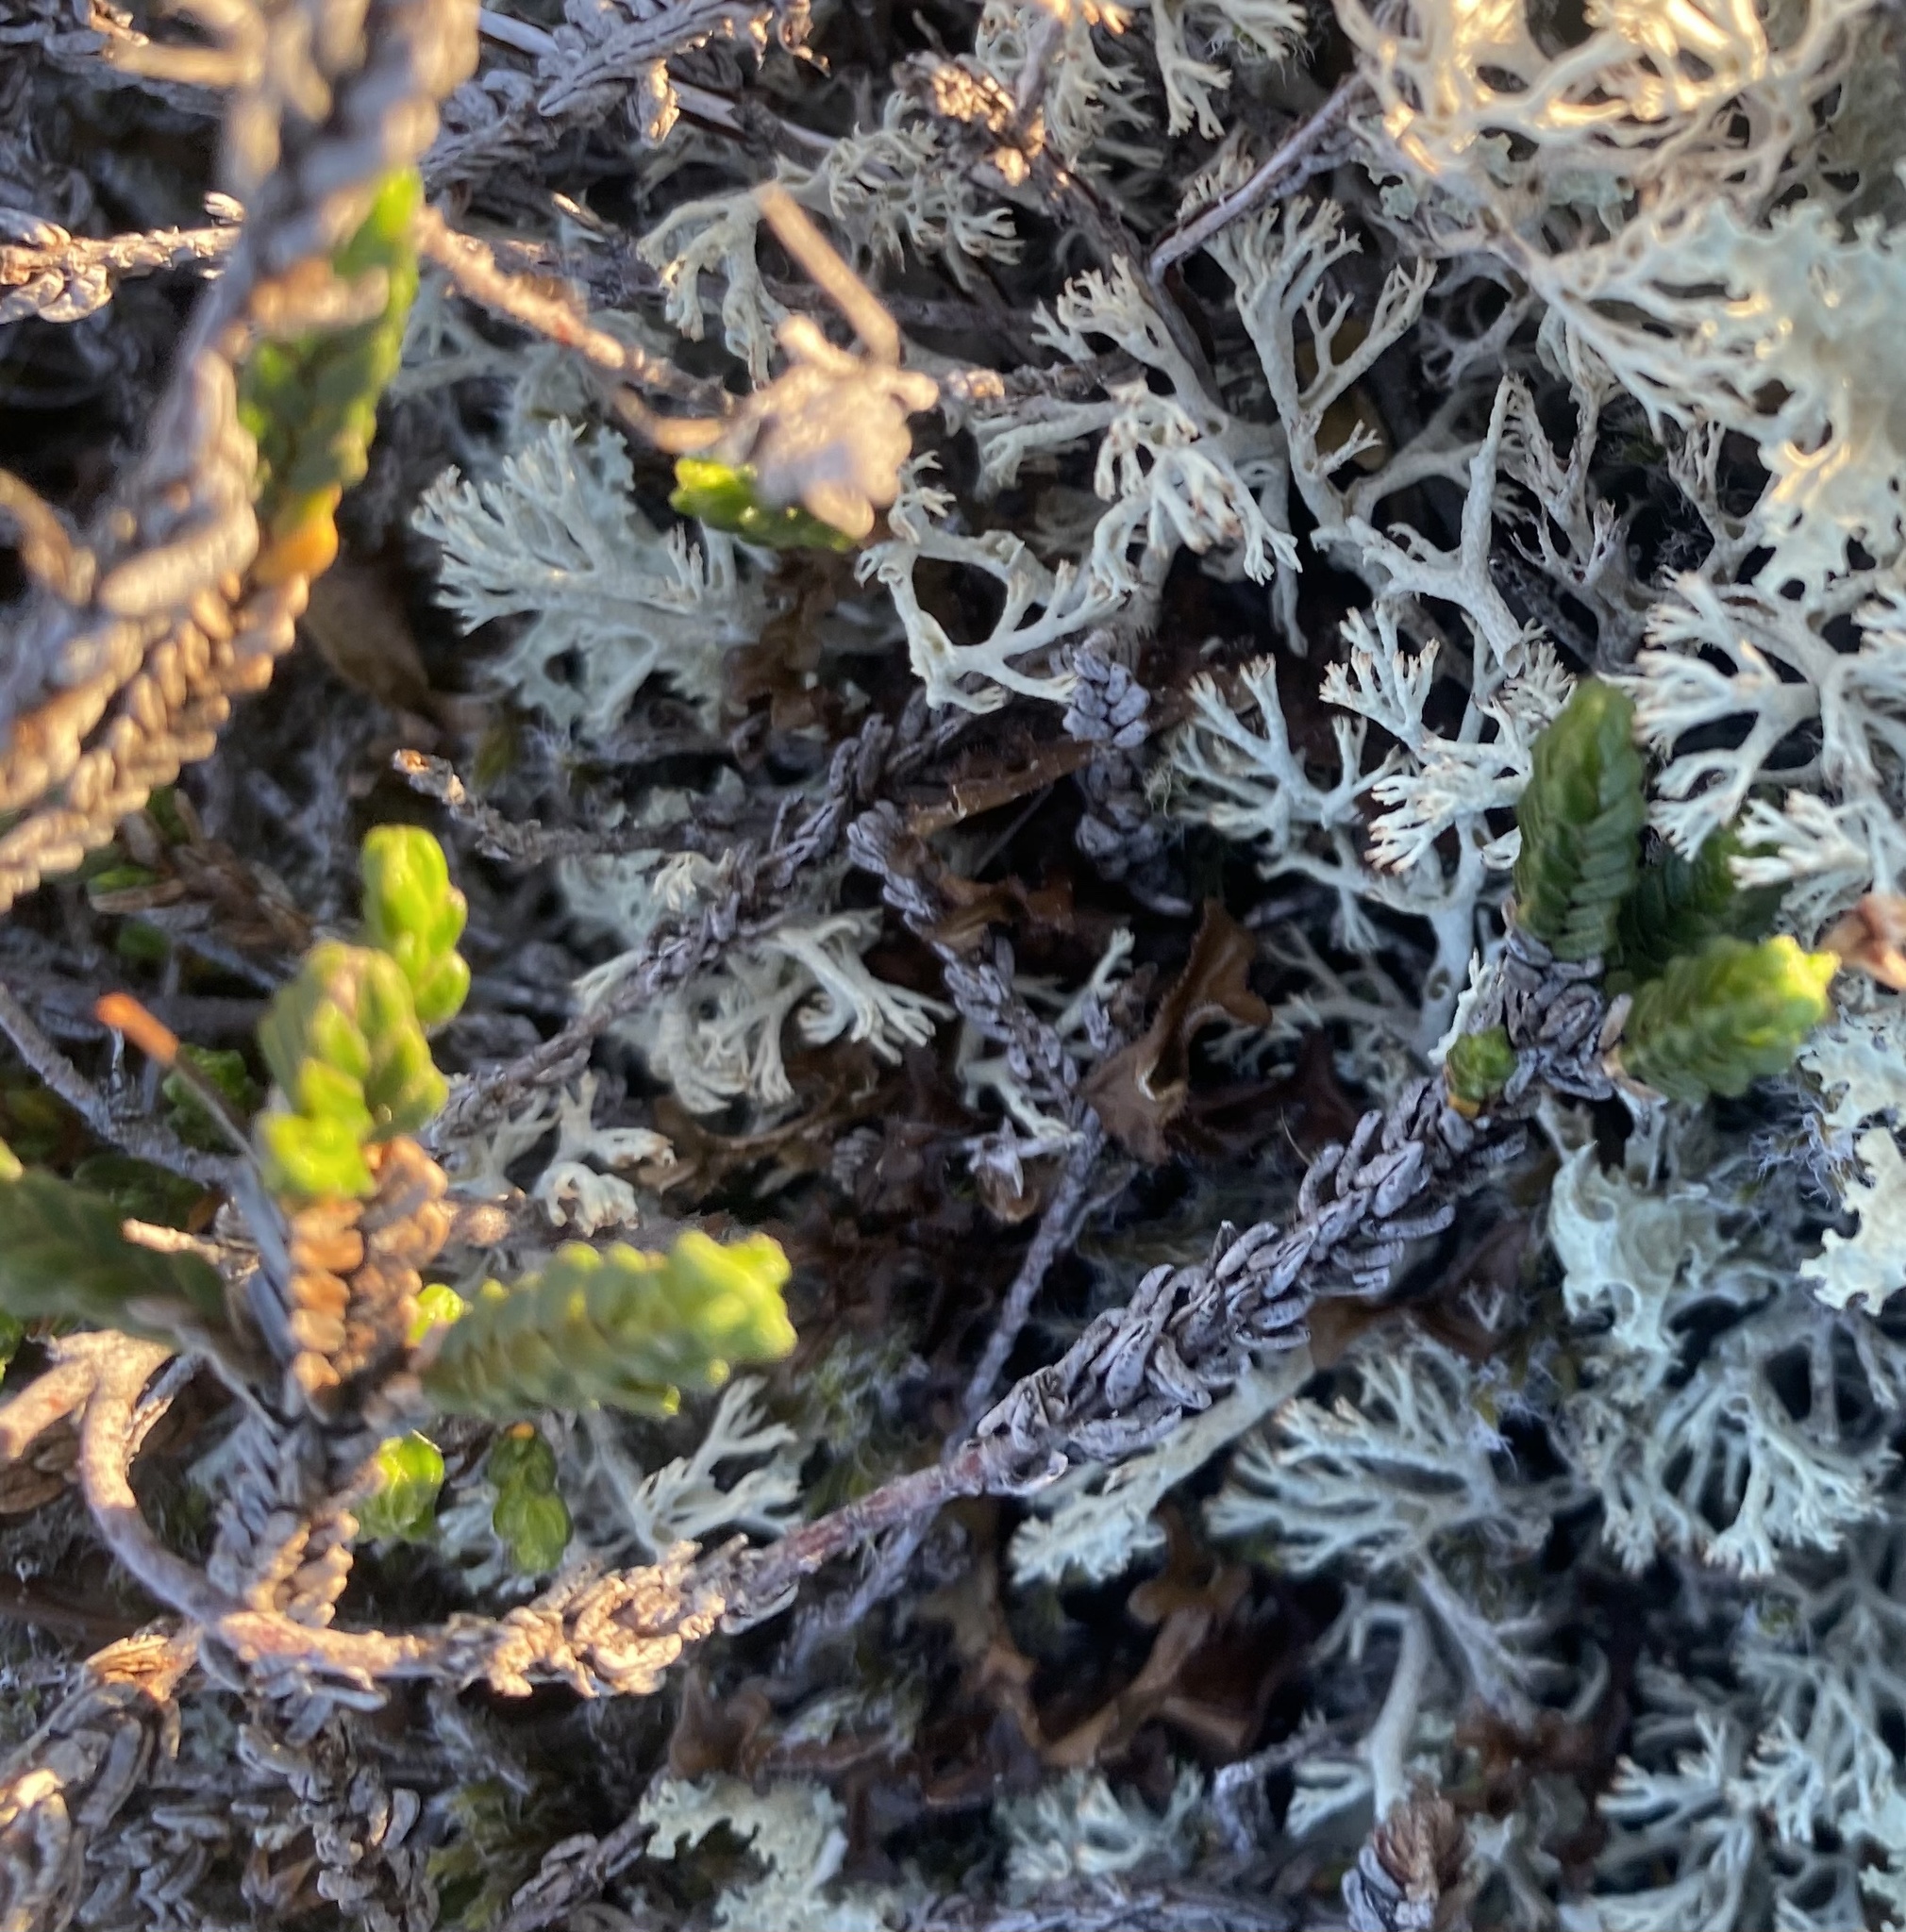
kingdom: Plantae
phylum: Tracheophyta
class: Magnoliopsida
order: Ericales
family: Ericaceae
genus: Cassiope
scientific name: Cassiope tetragona
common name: Arctic bell heather
